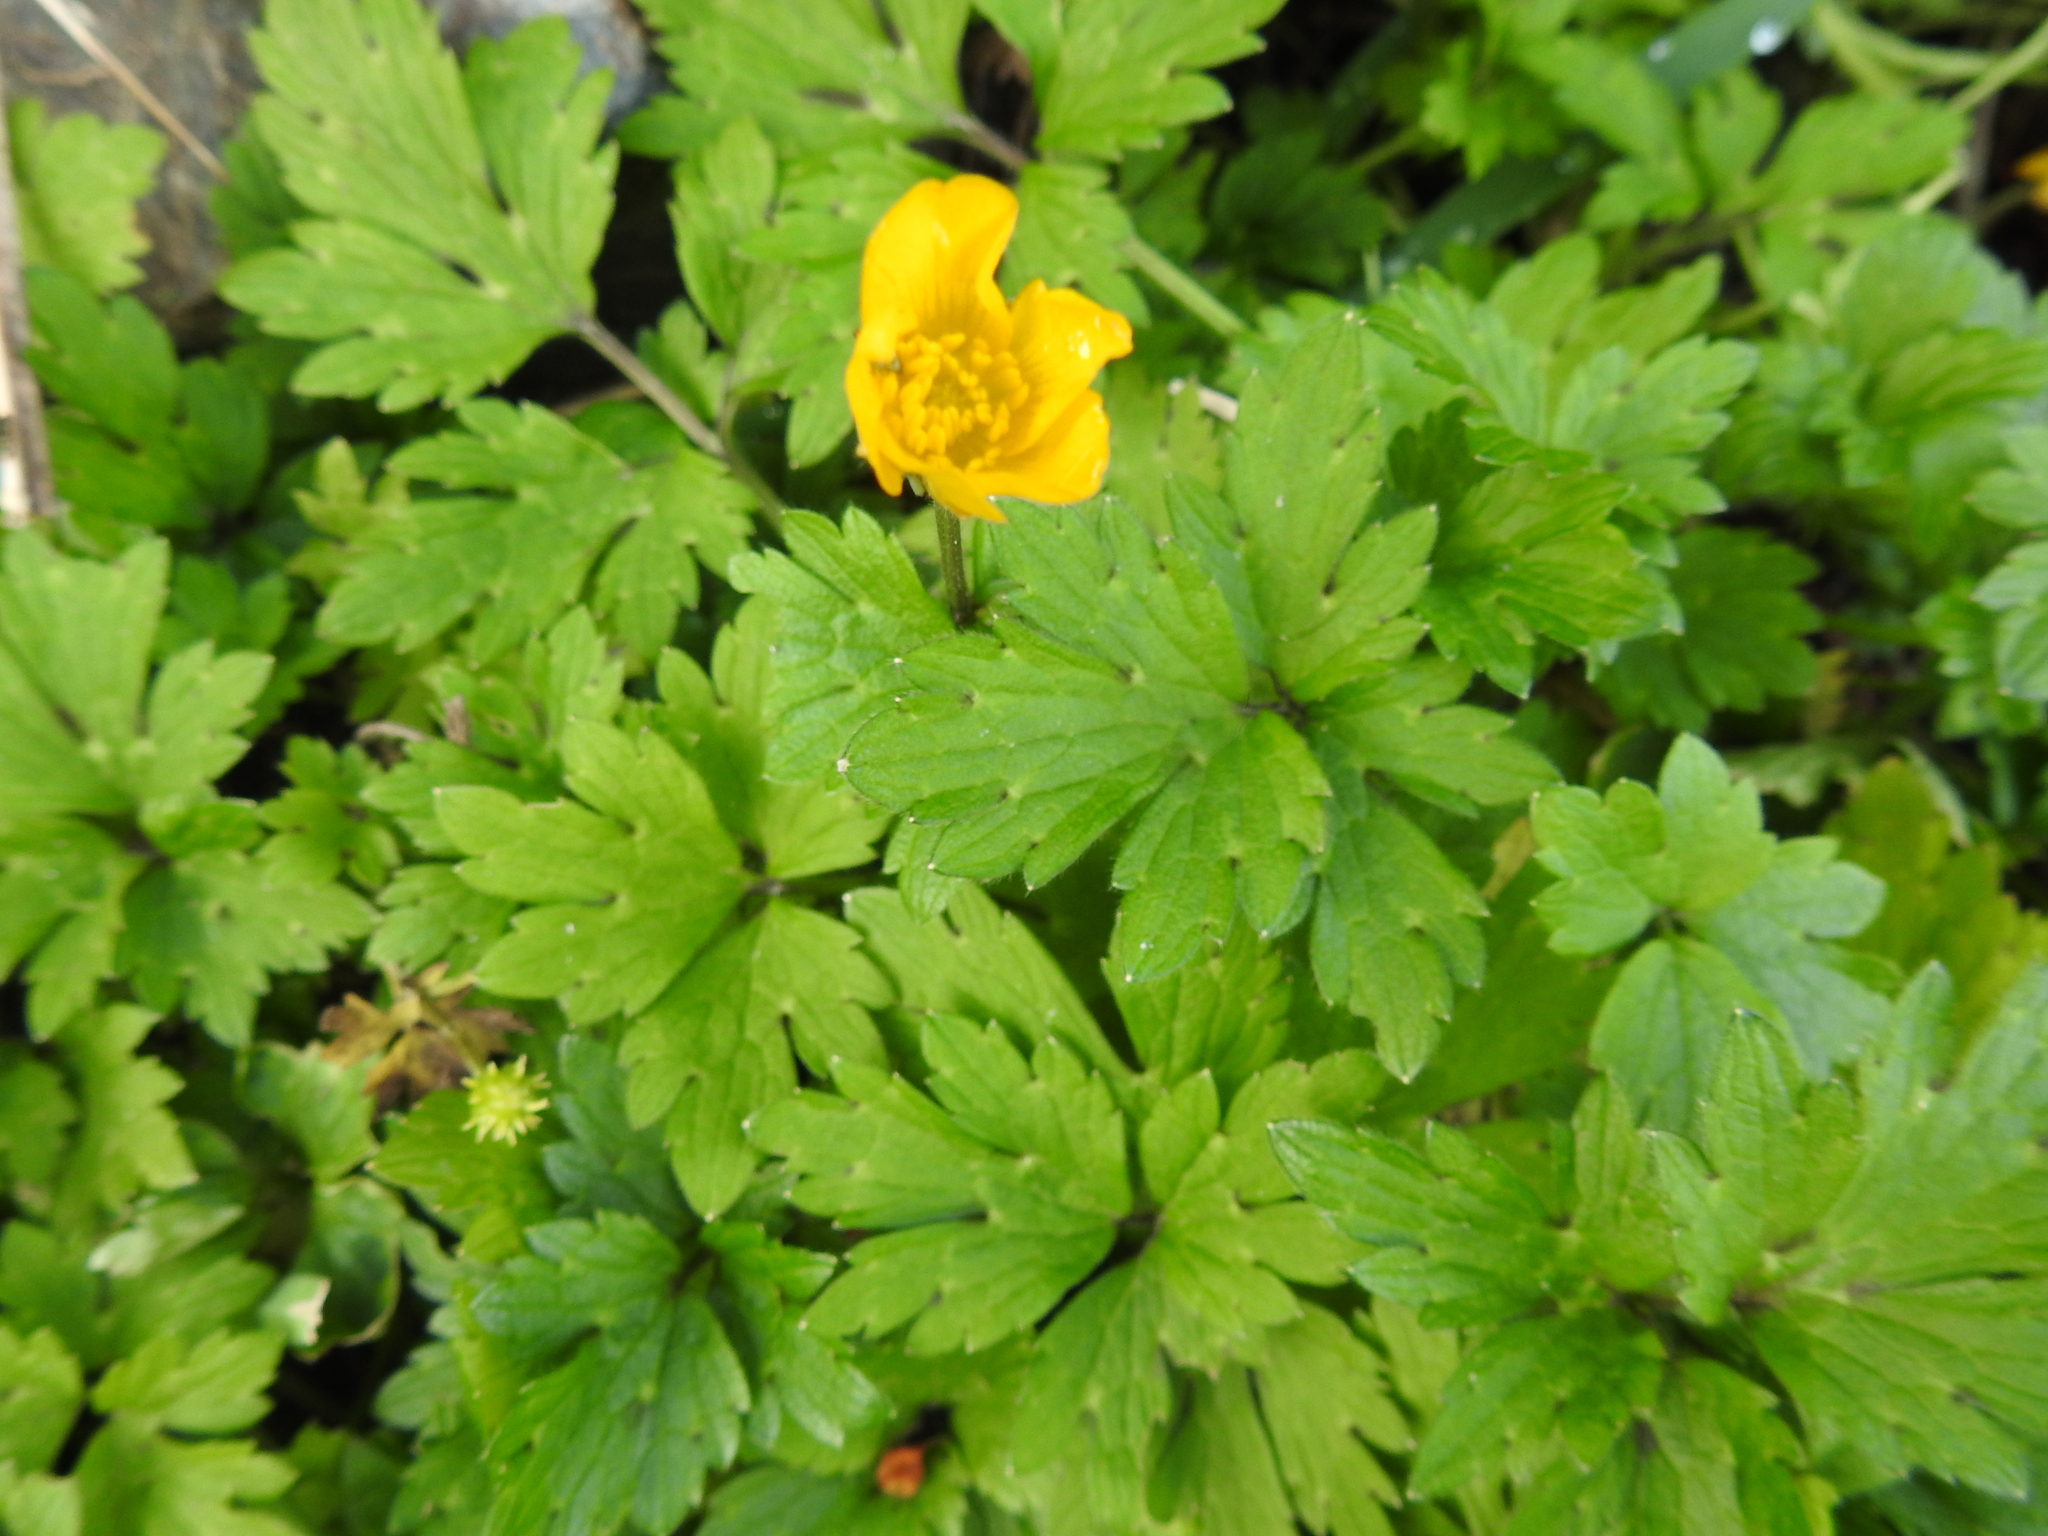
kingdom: Plantae
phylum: Tracheophyta
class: Magnoliopsida
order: Ranunculales
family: Ranunculaceae
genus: Ranunculus
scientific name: Ranunculus repens
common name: Creeping buttercup
